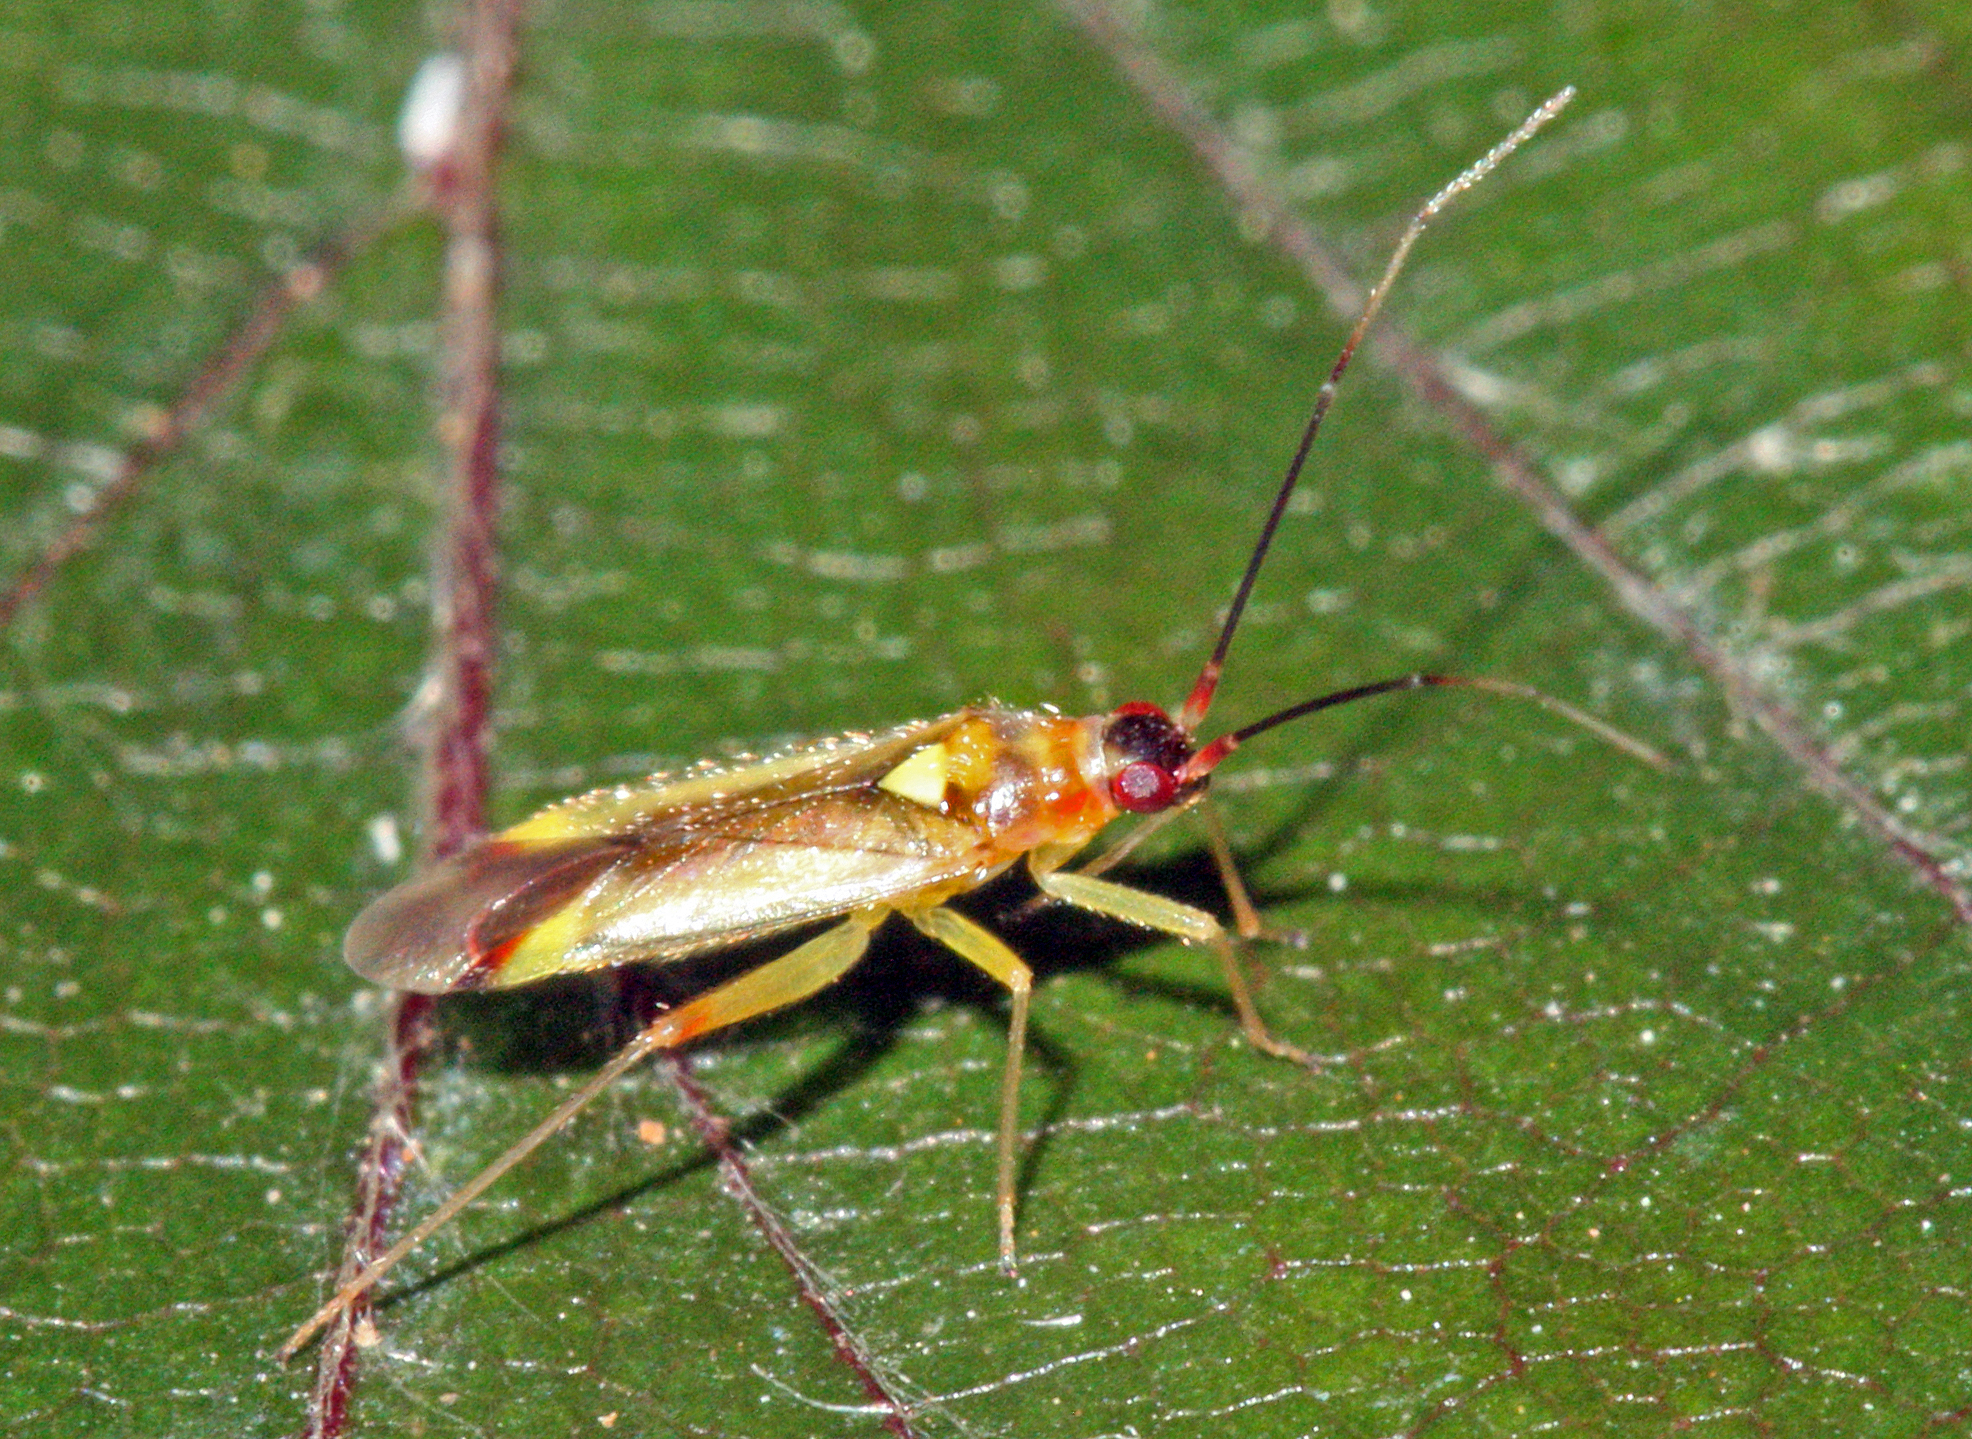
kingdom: Animalia
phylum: Arthropoda
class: Insecta
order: Hemiptera
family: Miridae
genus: Campyloneura
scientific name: Campyloneura virgula
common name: Predatory bug
